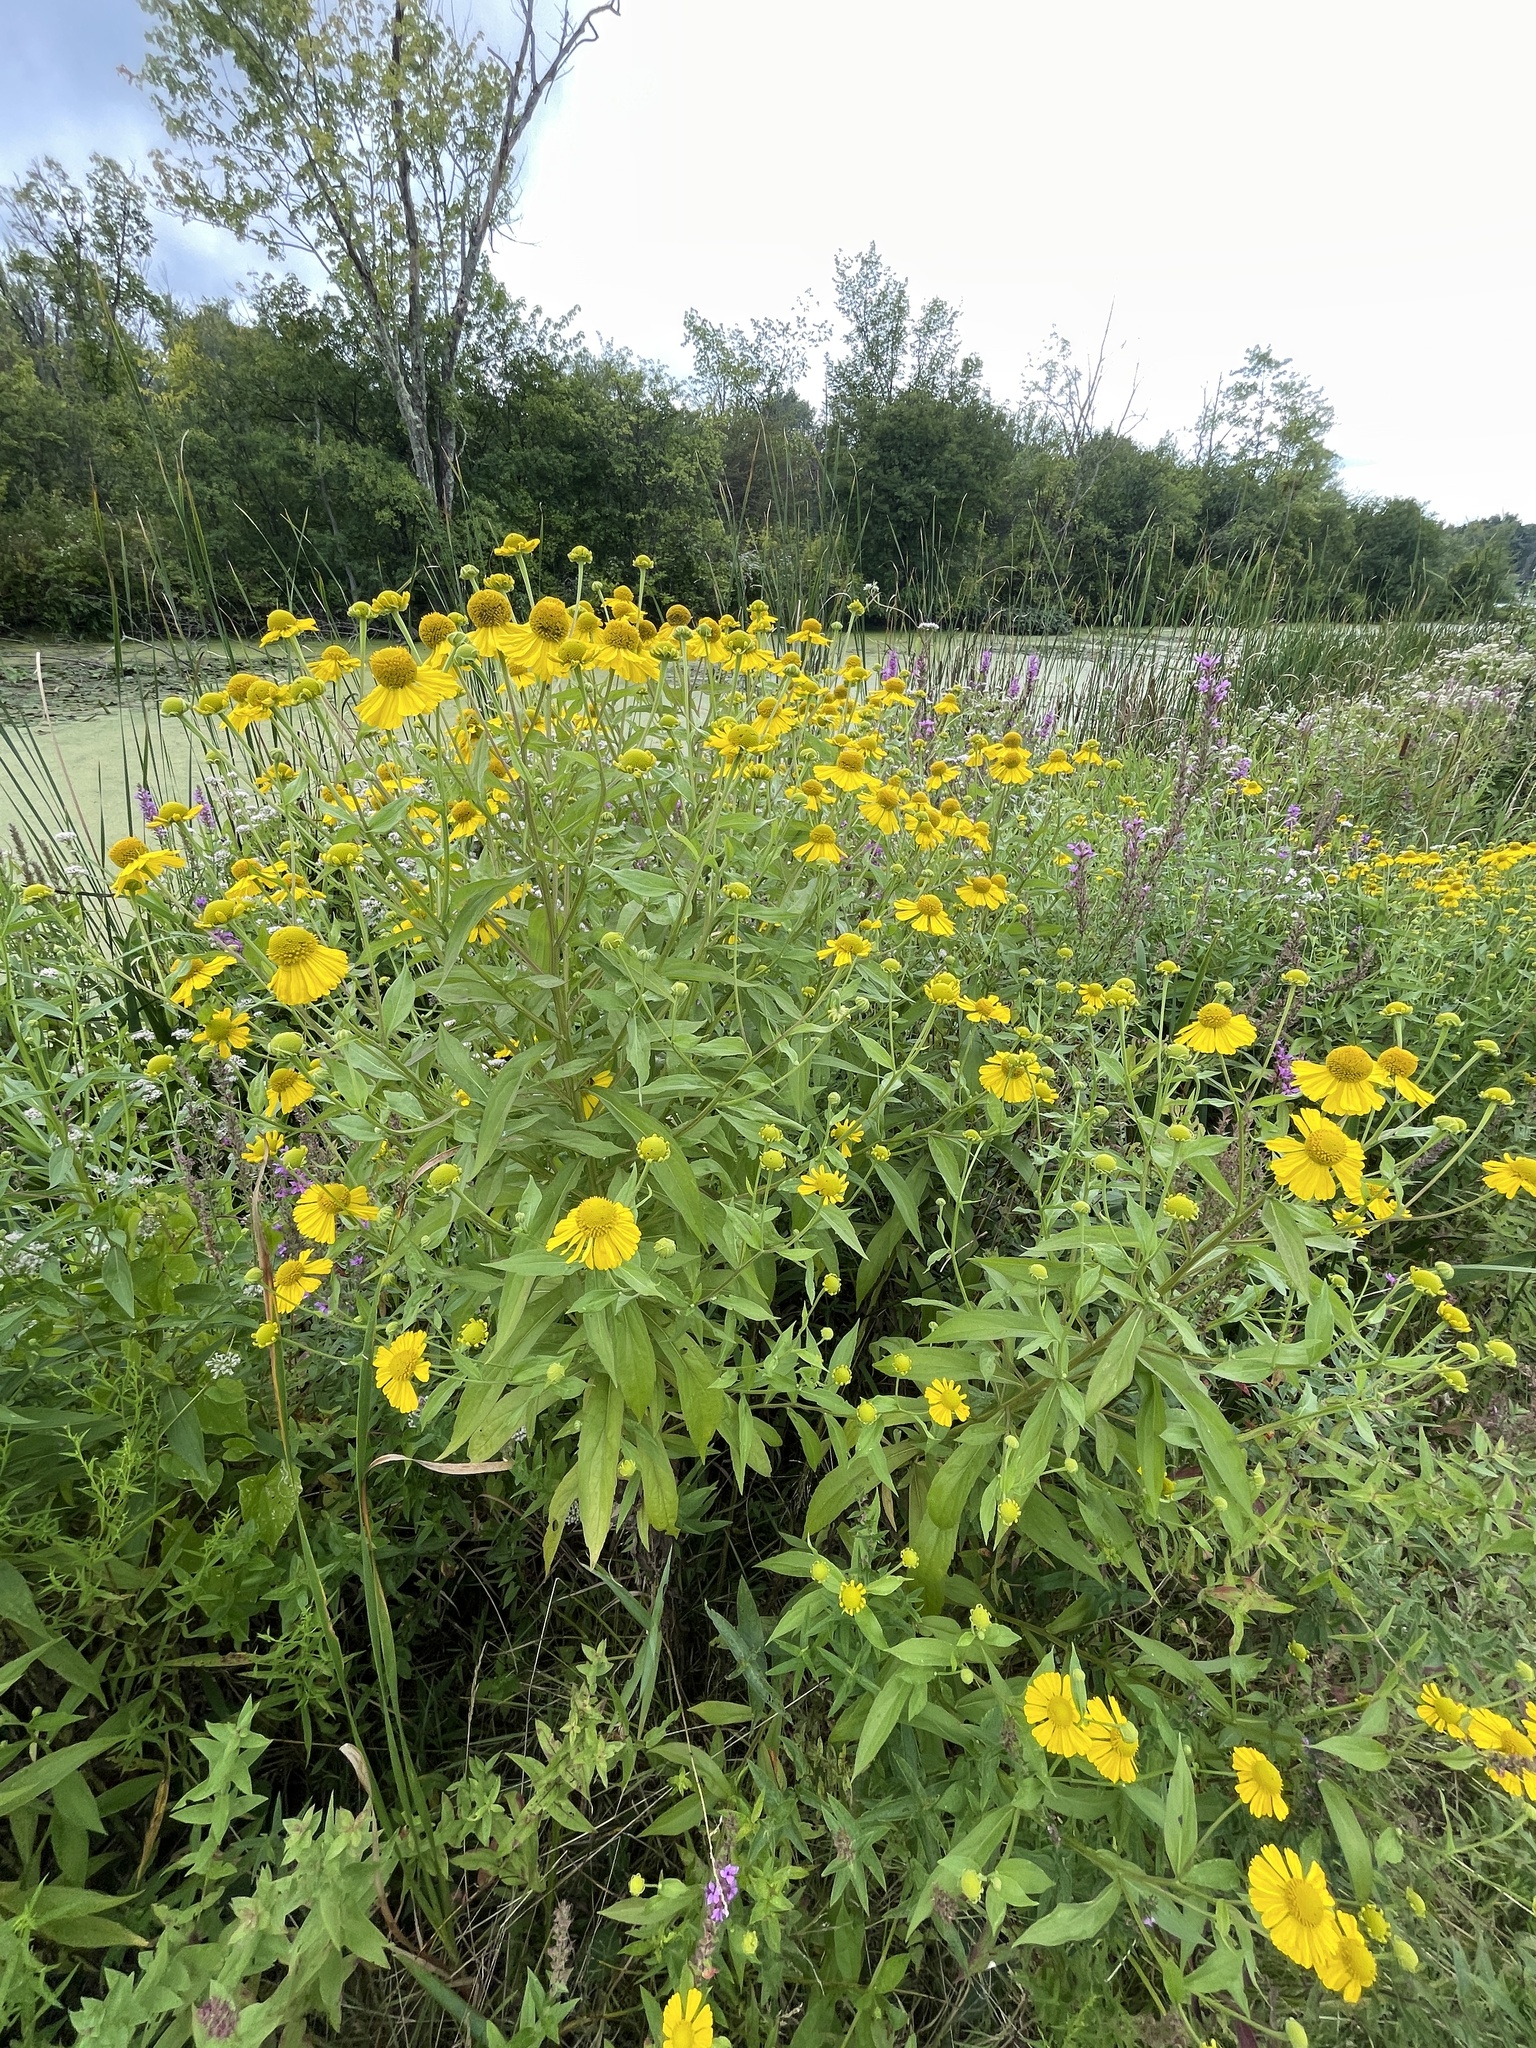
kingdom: Plantae
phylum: Tracheophyta
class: Magnoliopsida
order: Asterales
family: Asteraceae
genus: Helenium
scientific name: Helenium autumnale
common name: Sneezeweed
